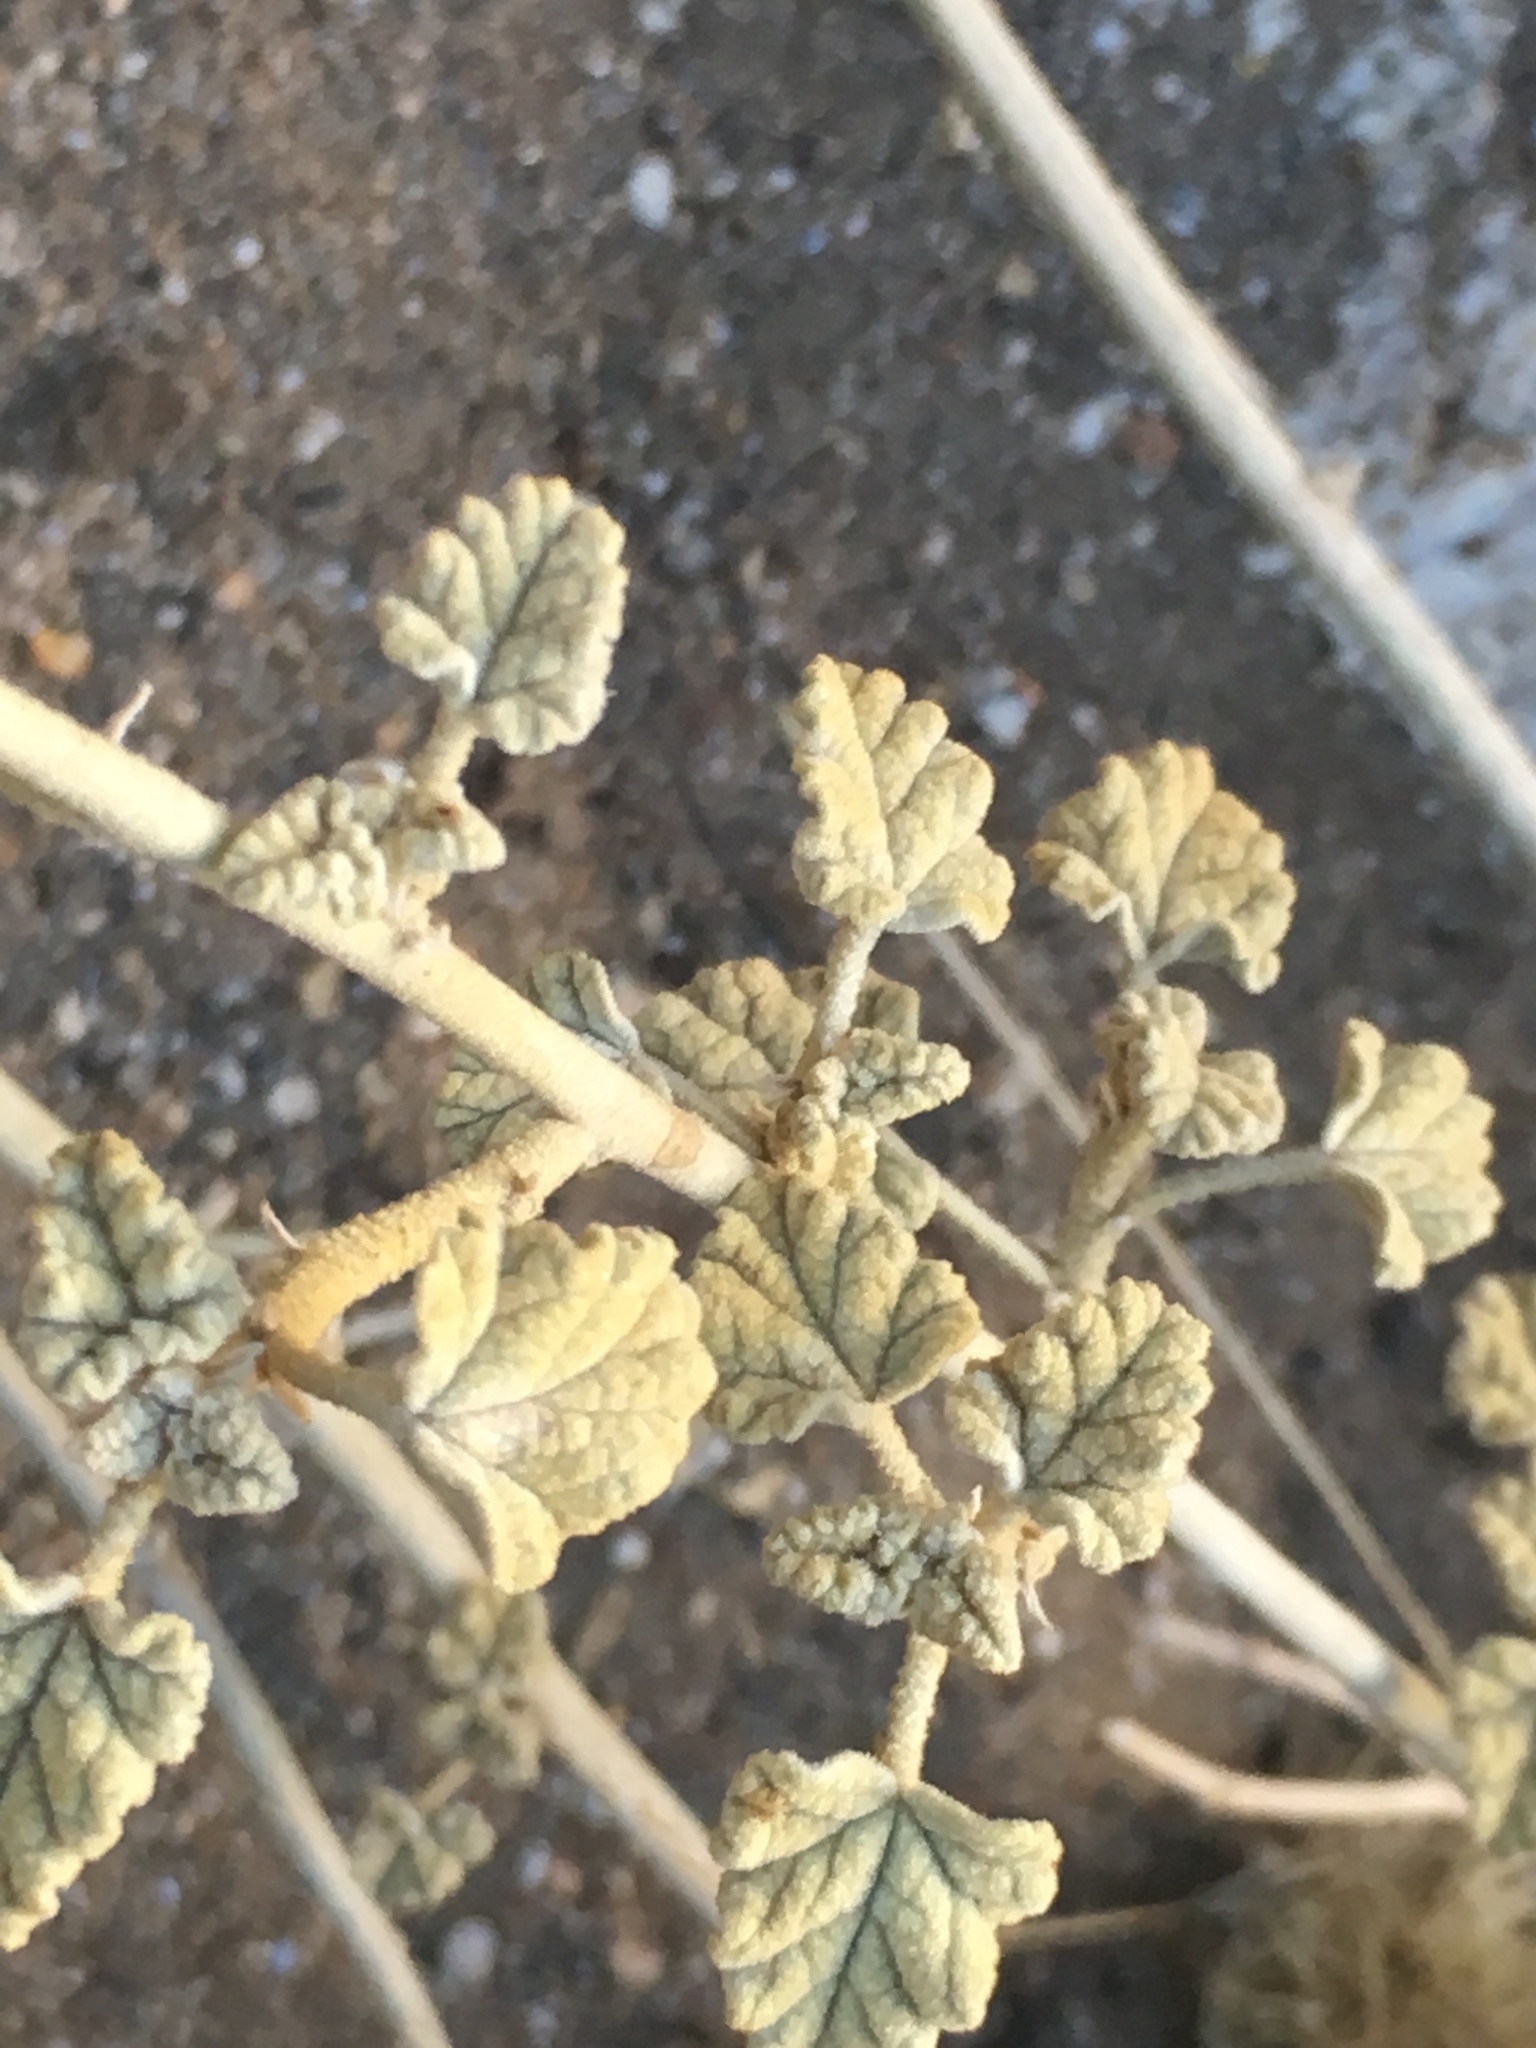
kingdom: Plantae
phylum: Tracheophyta
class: Magnoliopsida
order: Malvales
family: Malvaceae
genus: Sphaeralcea
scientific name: Sphaeralcea ambigua
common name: Apricot globe-mallow
